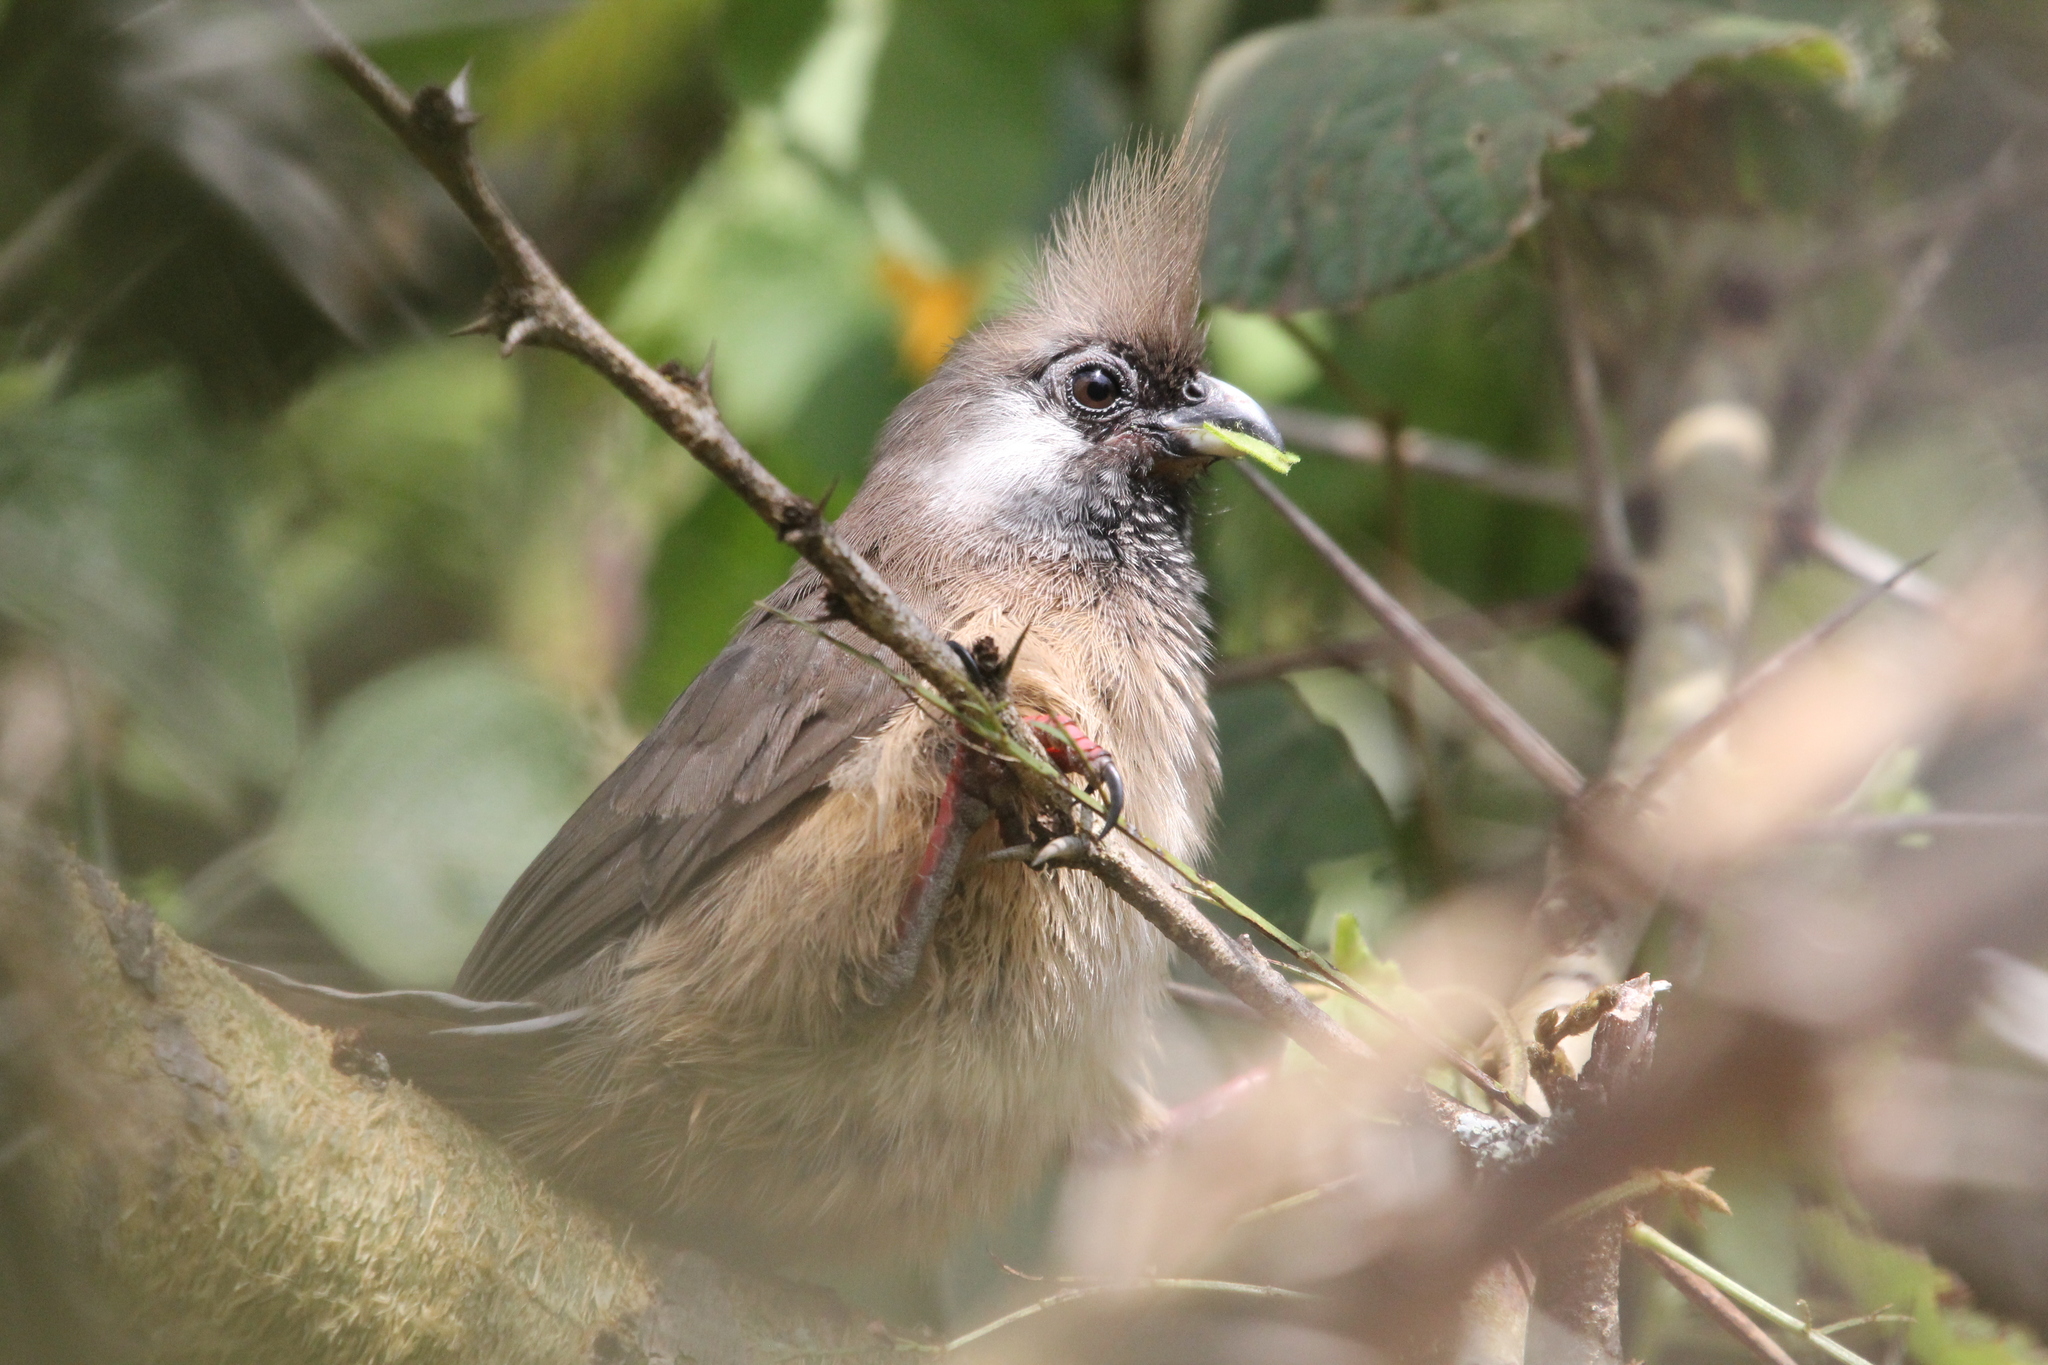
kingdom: Animalia
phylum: Chordata
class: Aves
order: Coliiformes
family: Coliidae
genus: Colius
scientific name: Colius striatus
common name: Speckled mousebird
